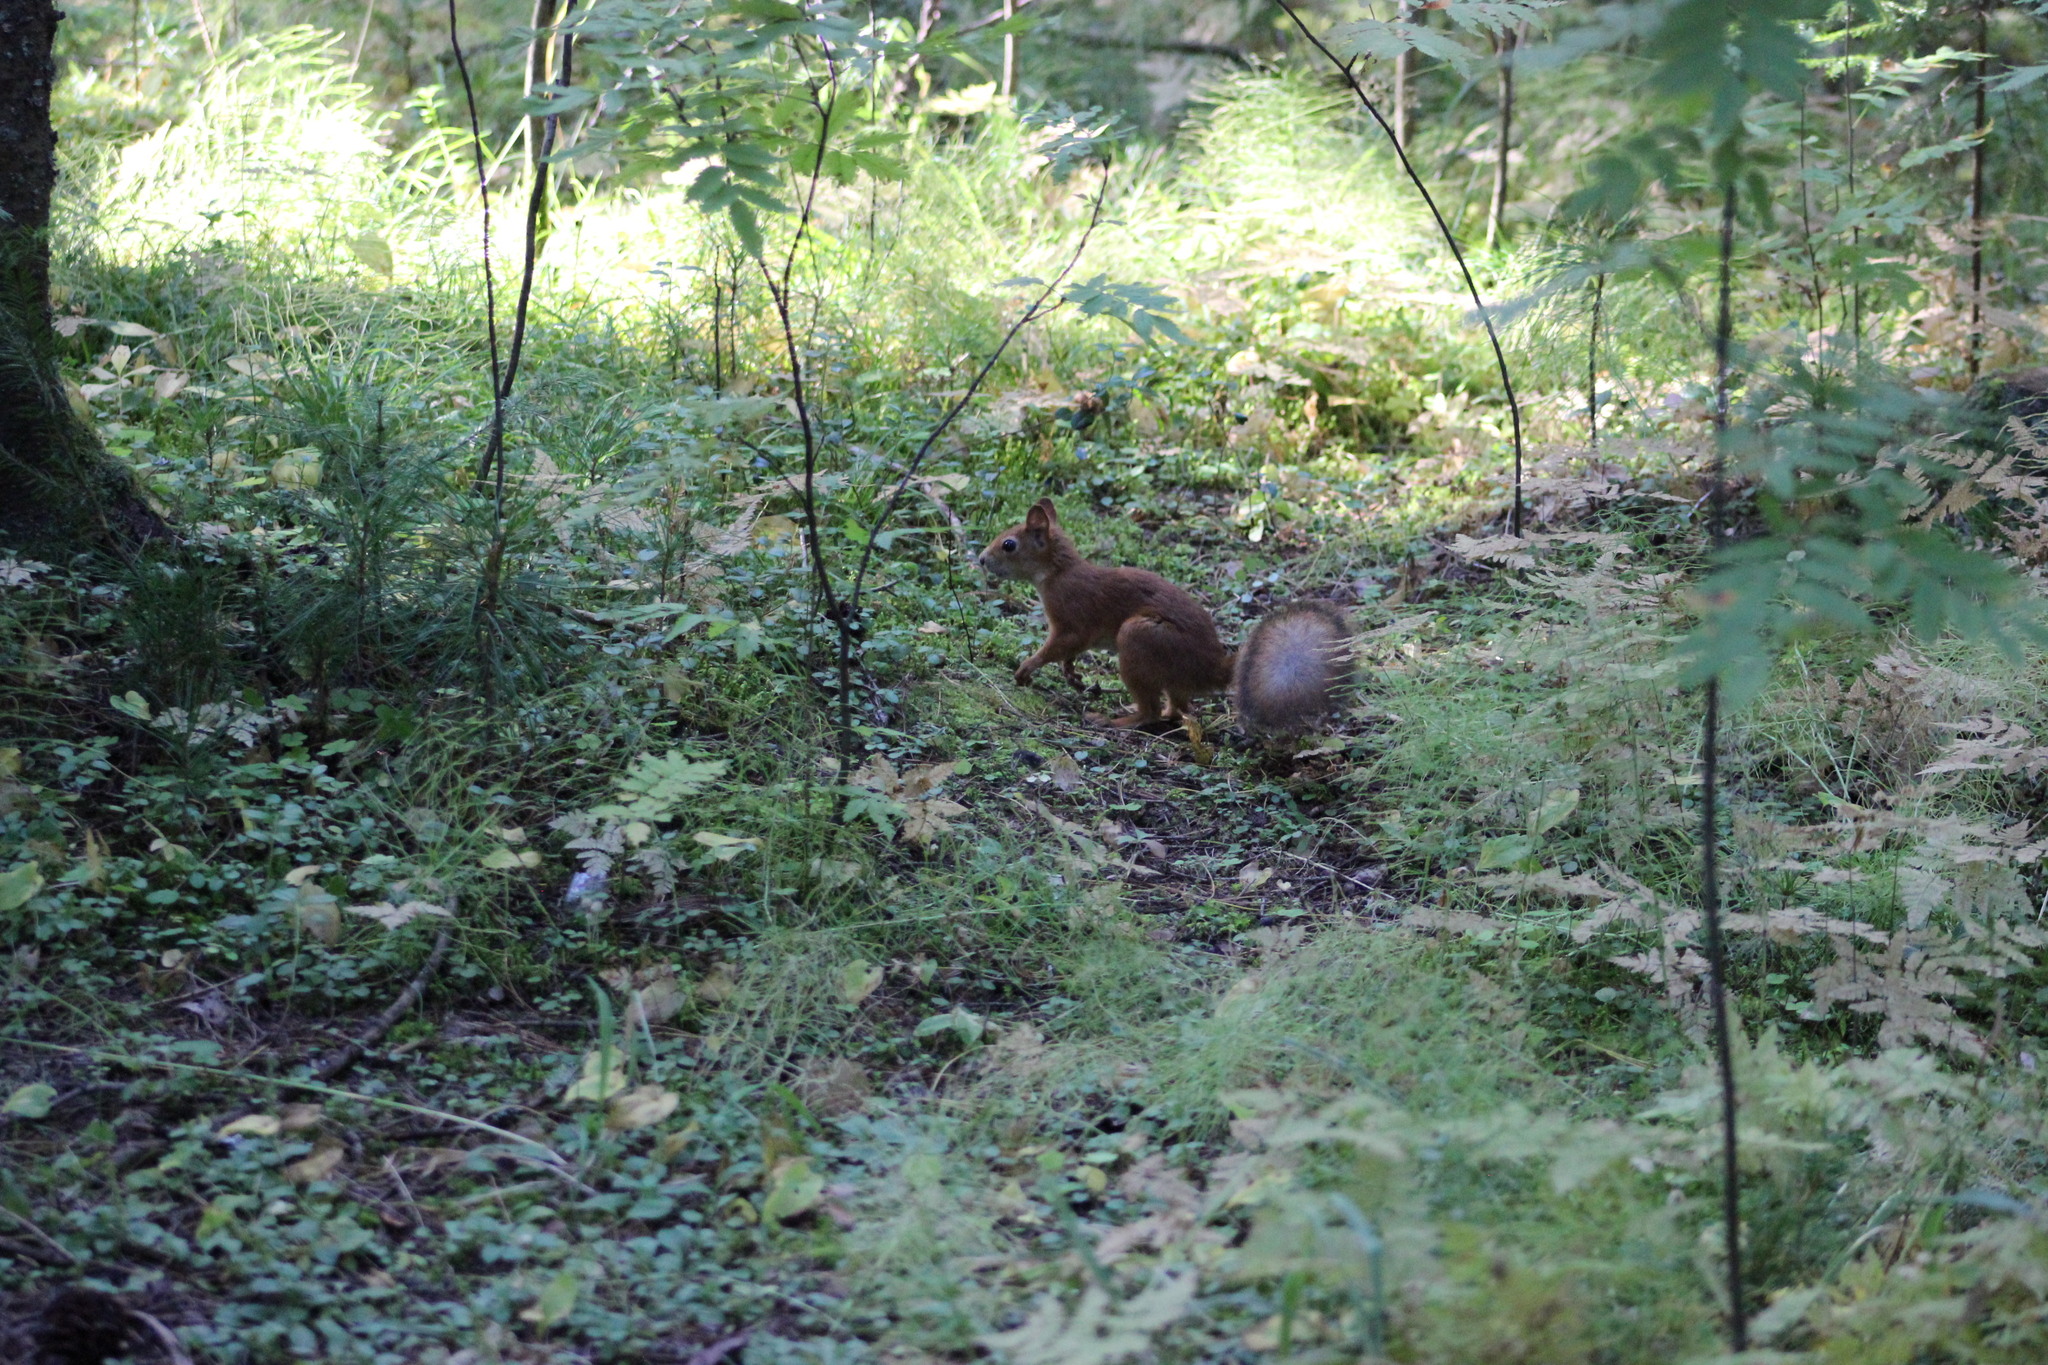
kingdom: Animalia
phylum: Chordata
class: Mammalia
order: Rodentia
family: Sciuridae
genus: Sciurus
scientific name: Sciurus vulgaris
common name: Eurasian red squirrel
